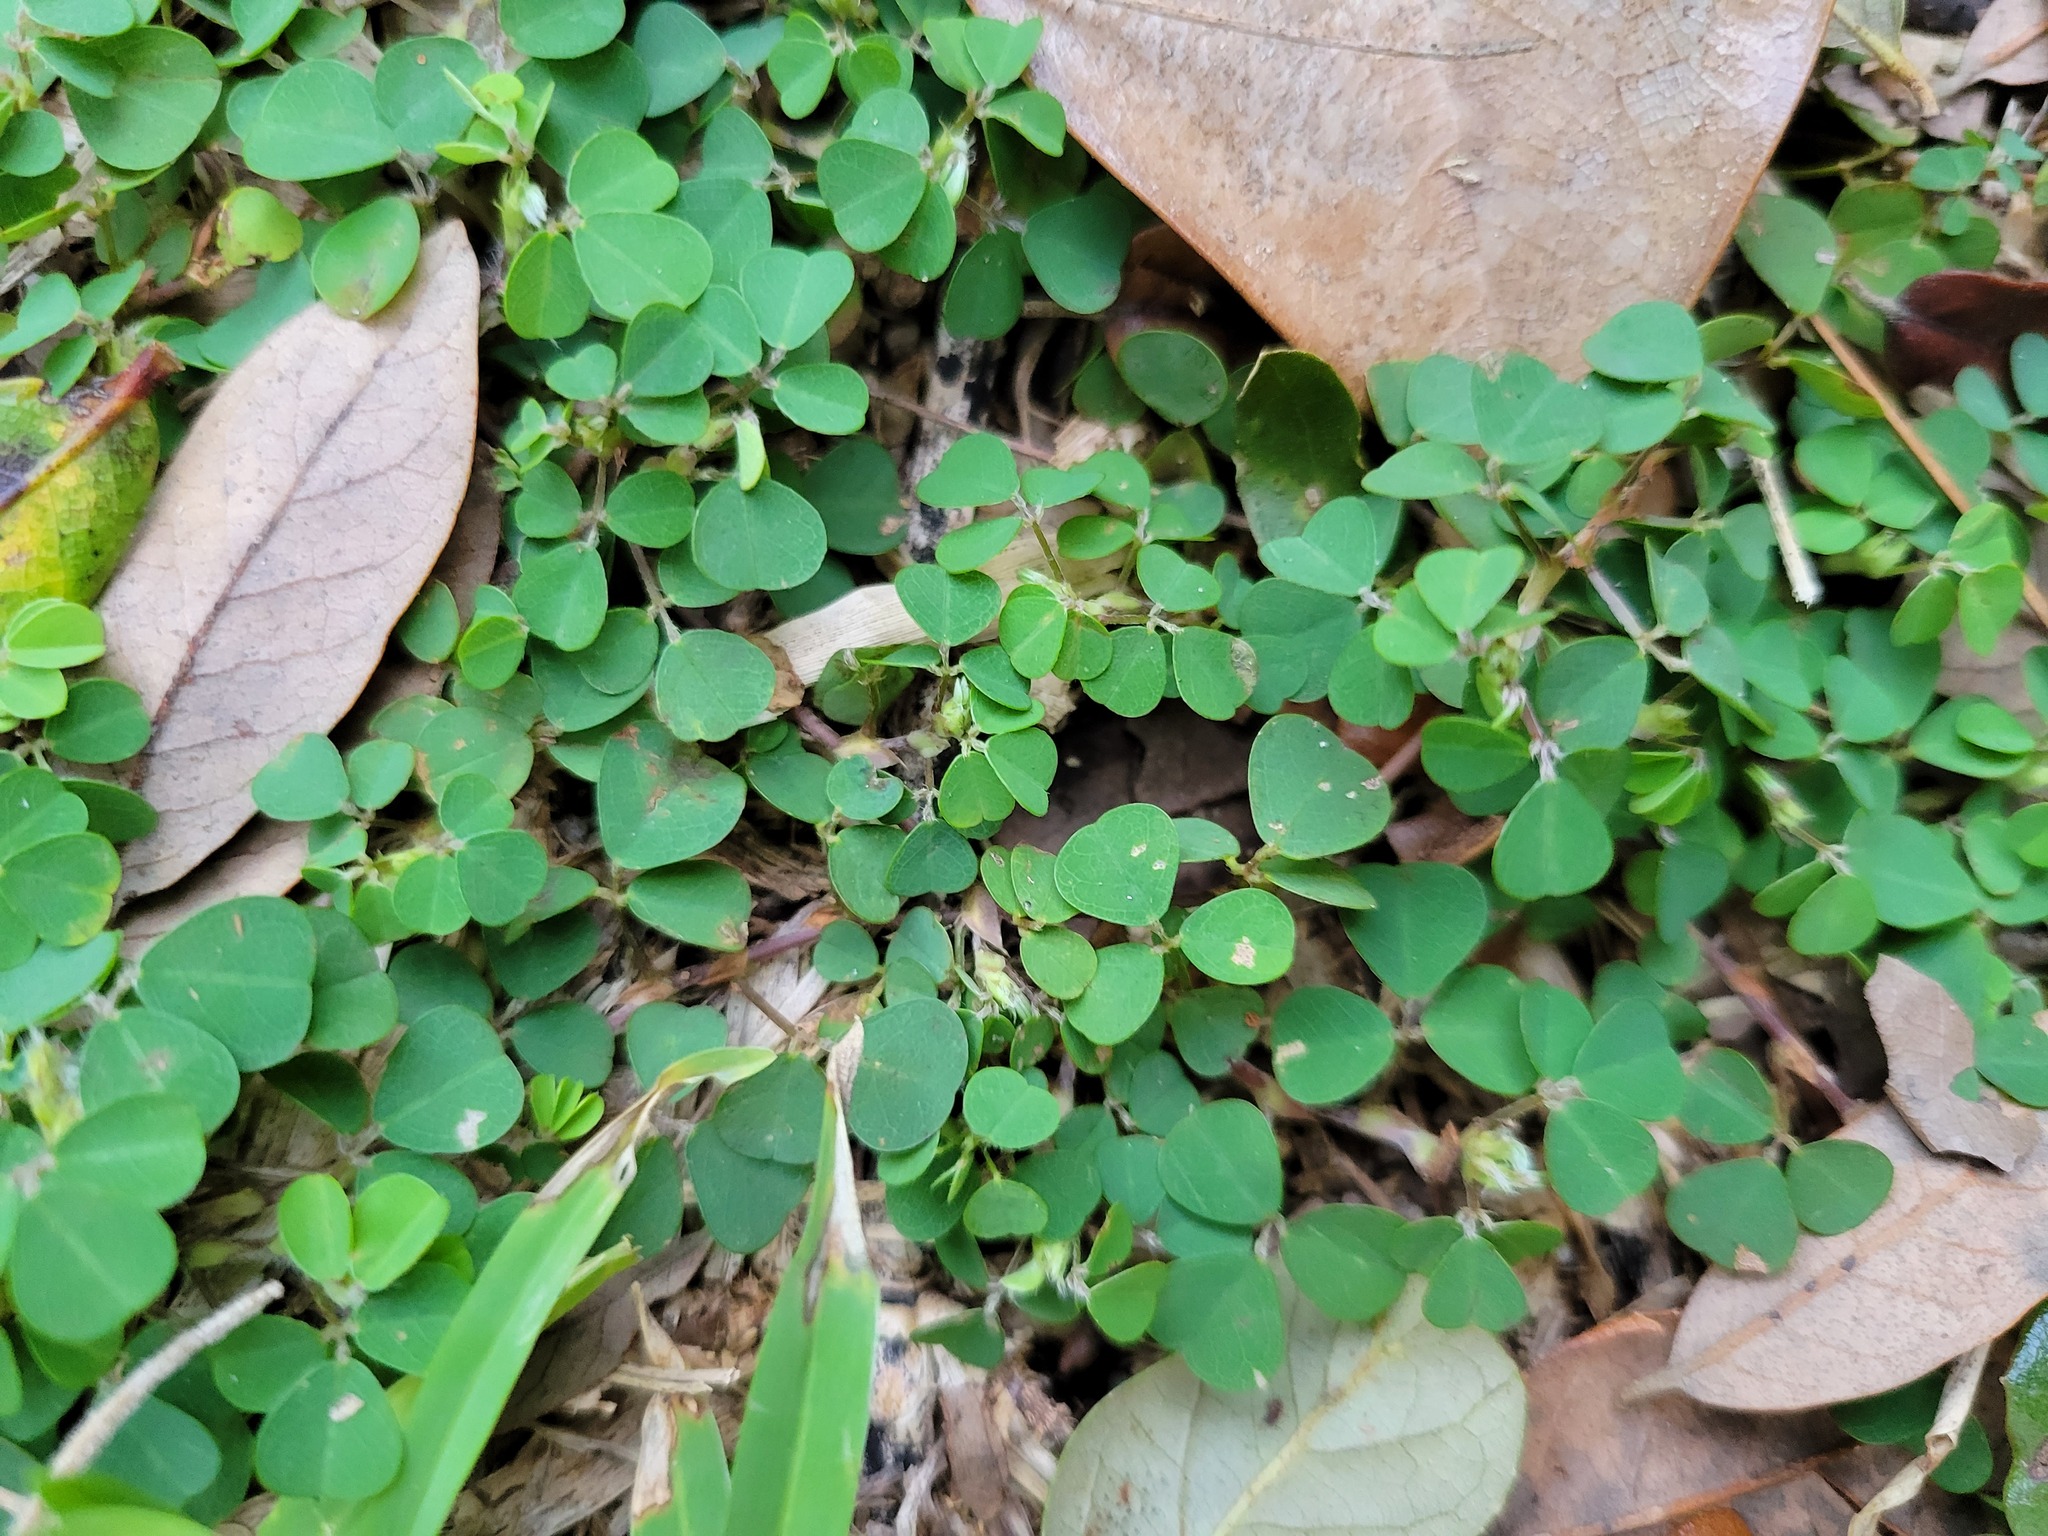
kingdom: Plantae
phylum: Tracheophyta
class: Magnoliopsida
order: Fabales
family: Fabaceae
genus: Grona
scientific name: Grona triflora
